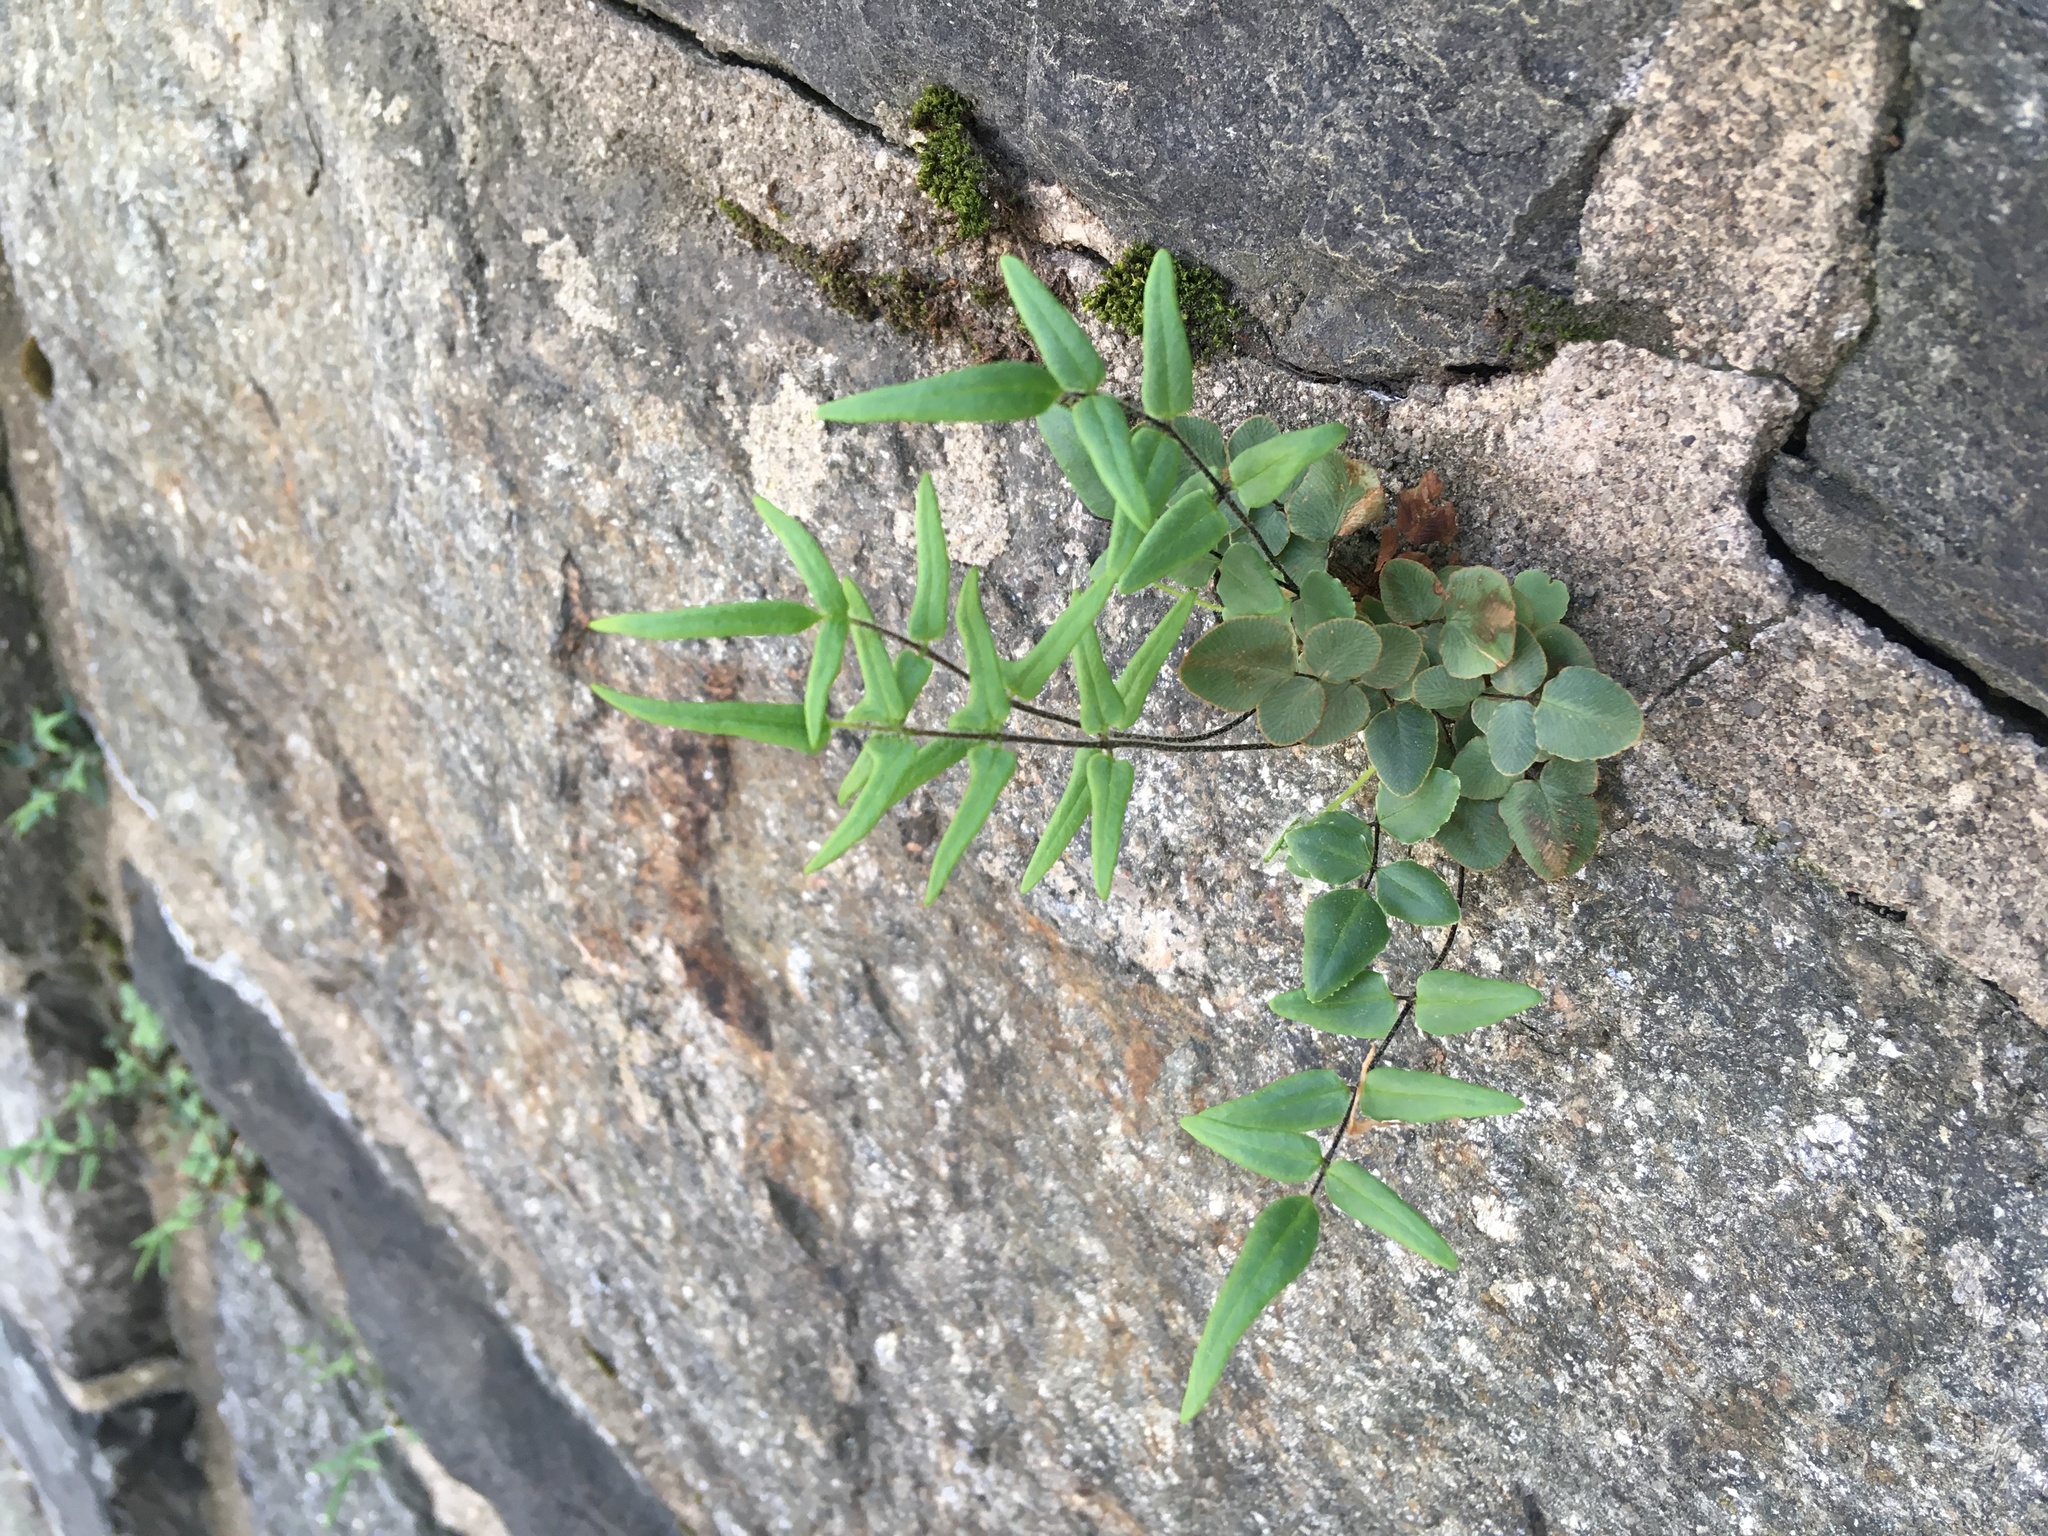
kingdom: Plantae
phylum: Tracheophyta
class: Polypodiopsida
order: Polypodiales
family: Pteridaceae
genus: Pellaea
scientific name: Pellaea atropurpurea
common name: Hairy cliffbrake
